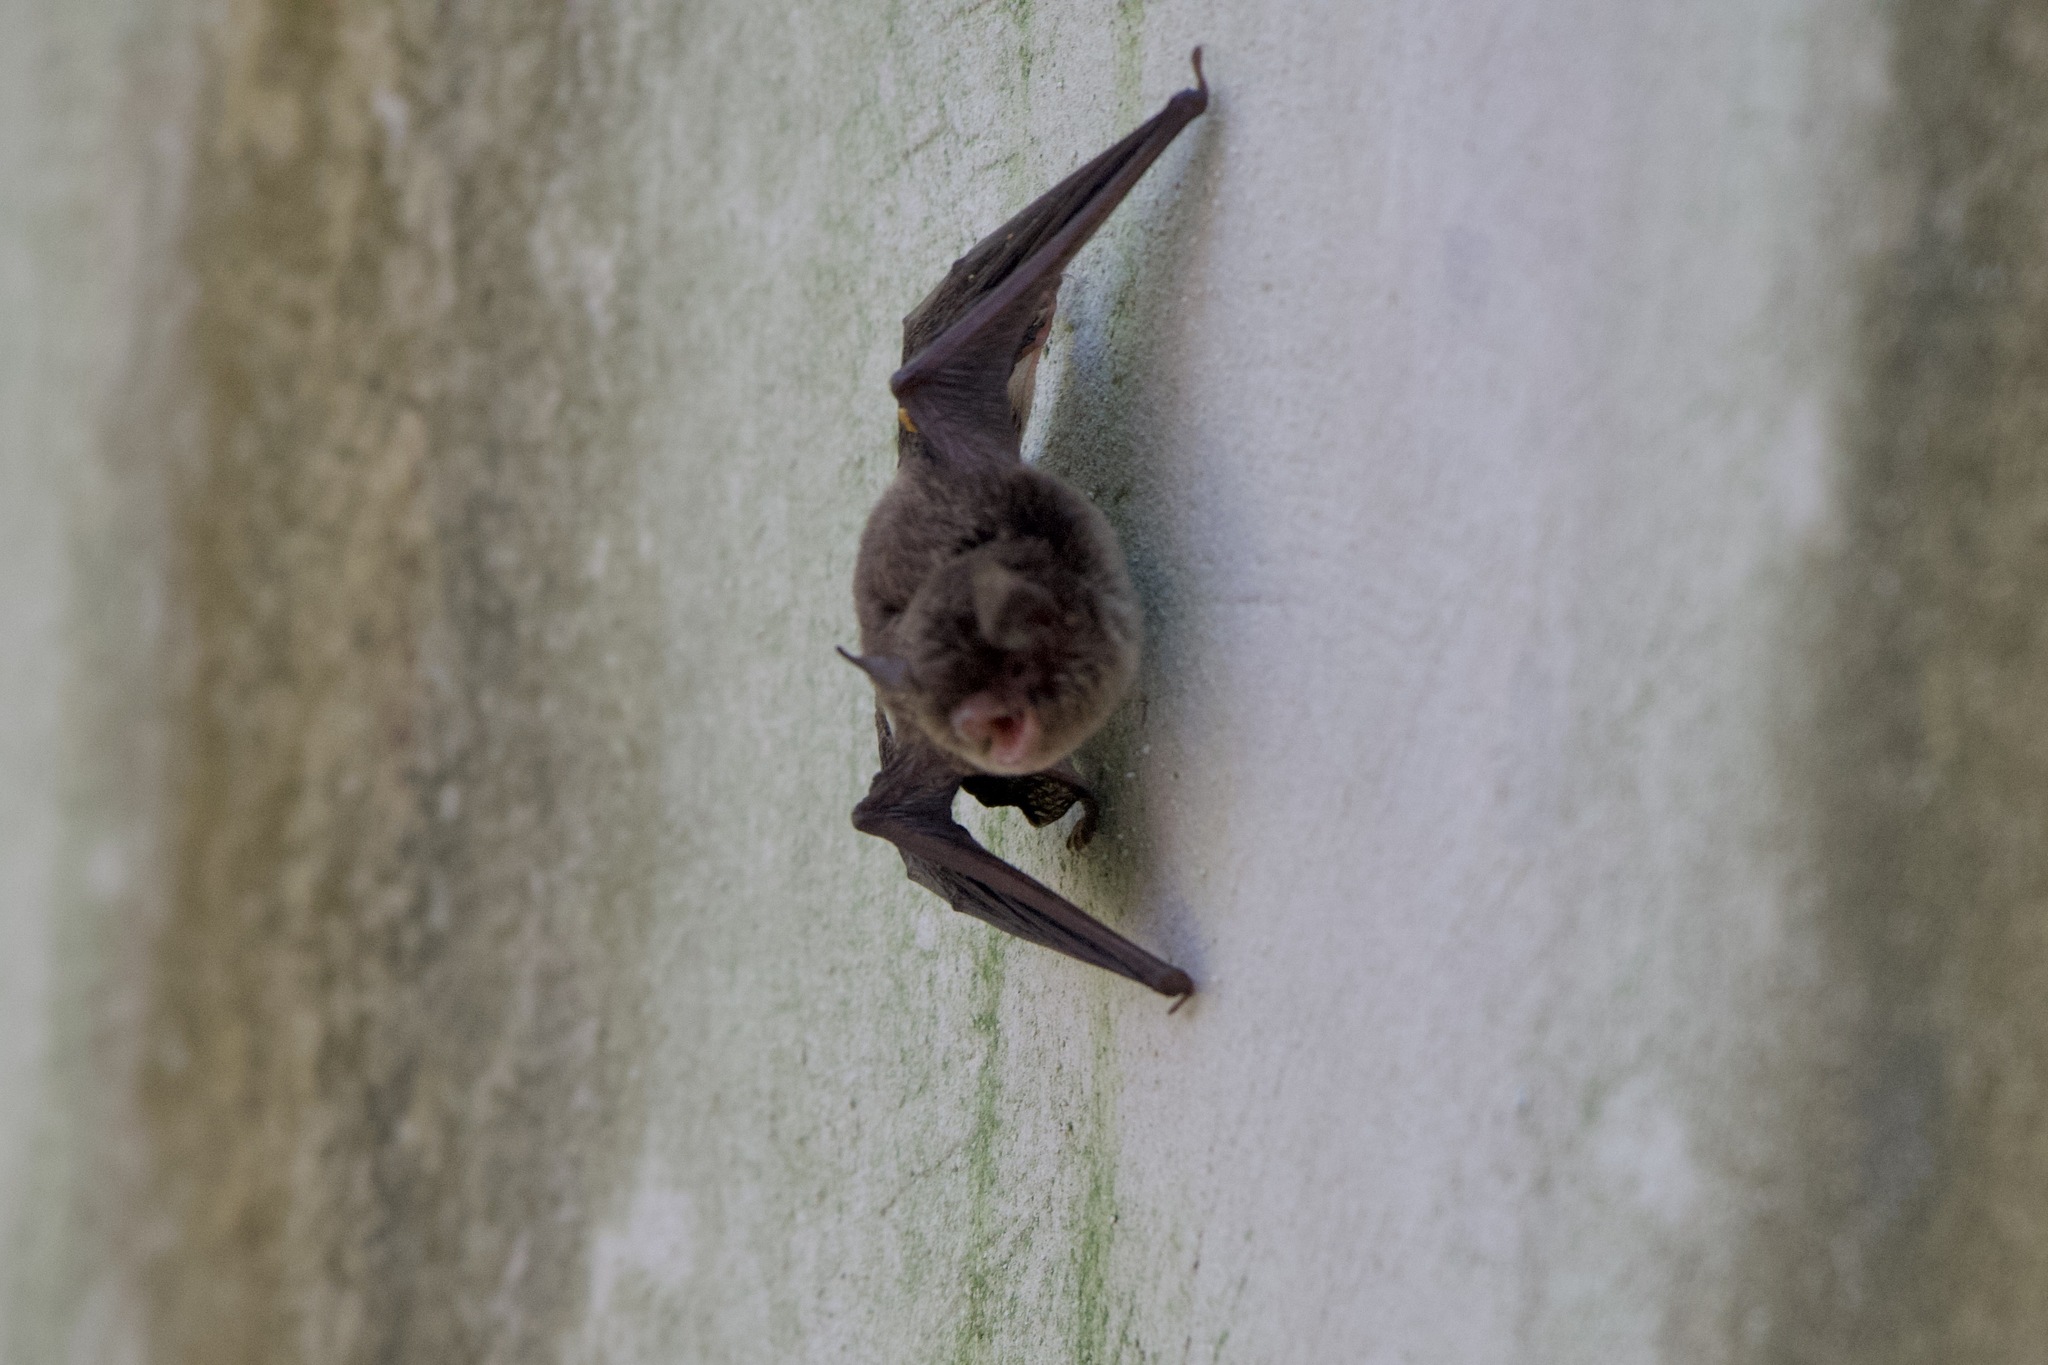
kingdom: Animalia
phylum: Chordata
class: Mammalia
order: Chiroptera
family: Vespertilionidae
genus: Myotis
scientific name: Myotis pilosatibialis
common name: Northern hairy-legged myotis
